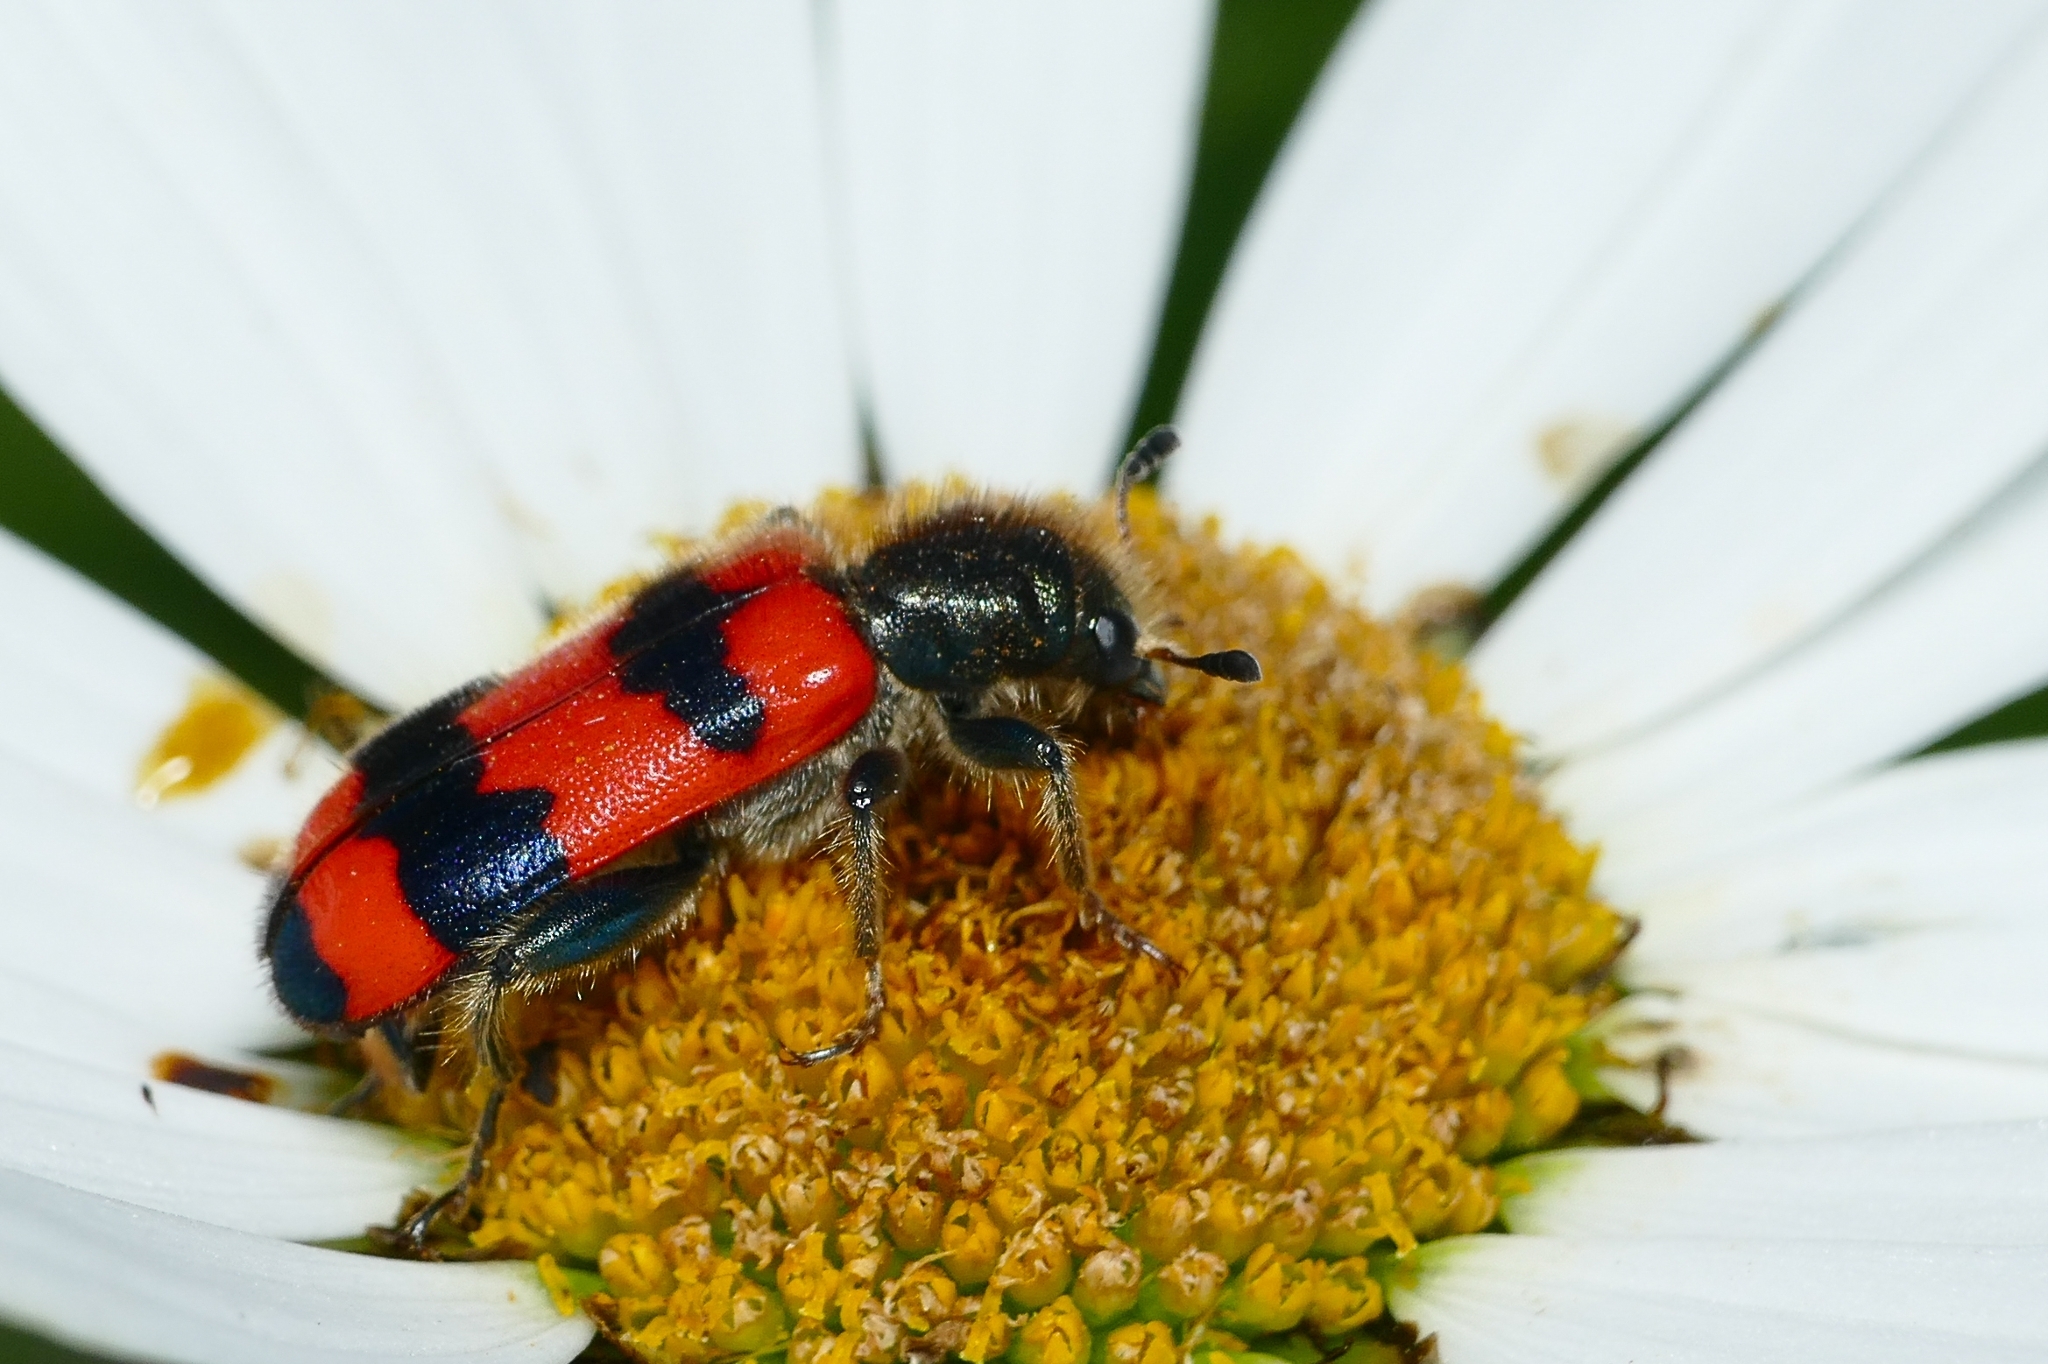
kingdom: Animalia
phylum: Arthropoda
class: Insecta
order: Coleoptera
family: Cleridae
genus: Trichodes
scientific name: Trichodes apiarius
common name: Bee-eating beetle
